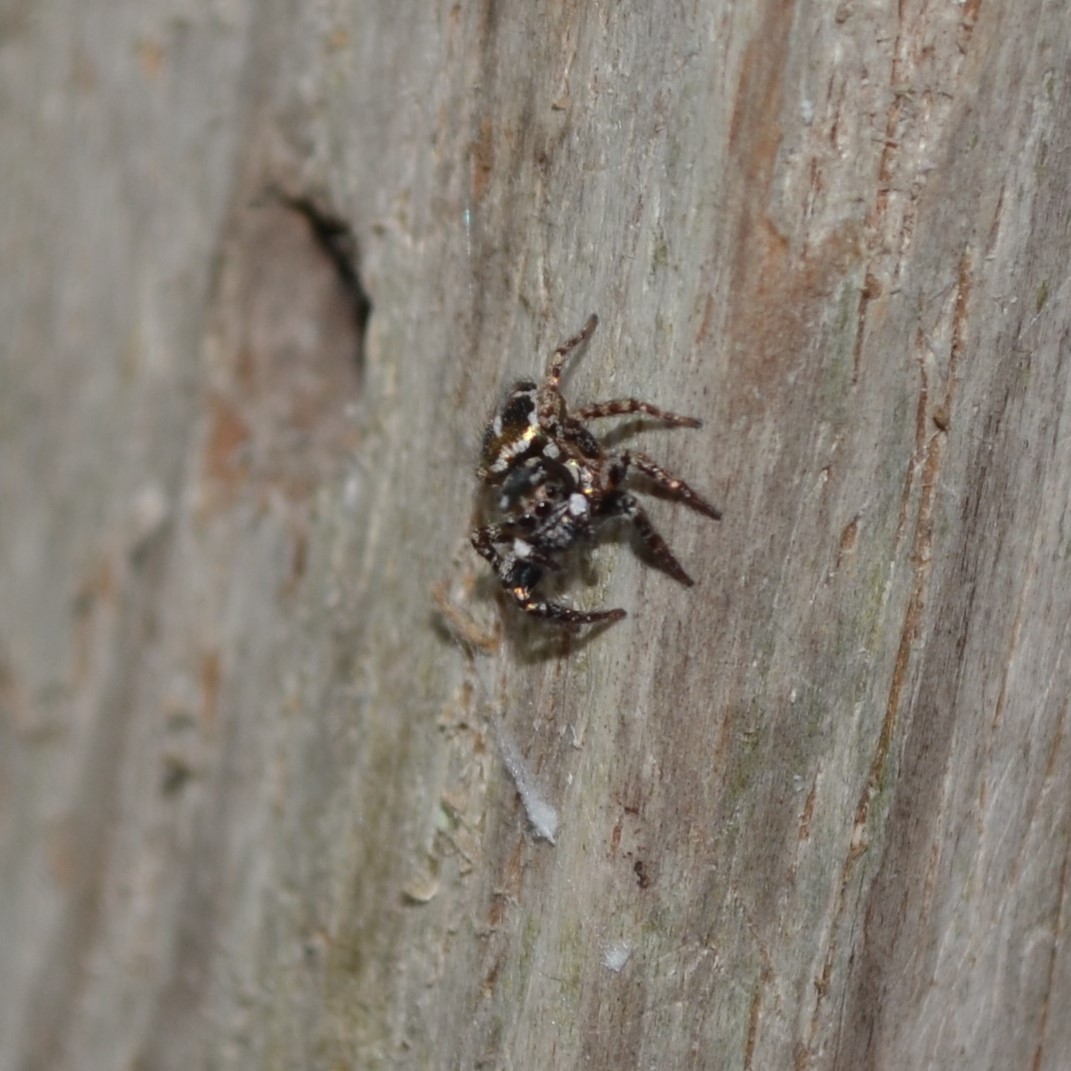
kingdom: Animalia
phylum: Arthropoda
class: Arachnida
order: Araneae
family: Salticidae
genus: Anasaitis
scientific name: Anasaitis canosa
